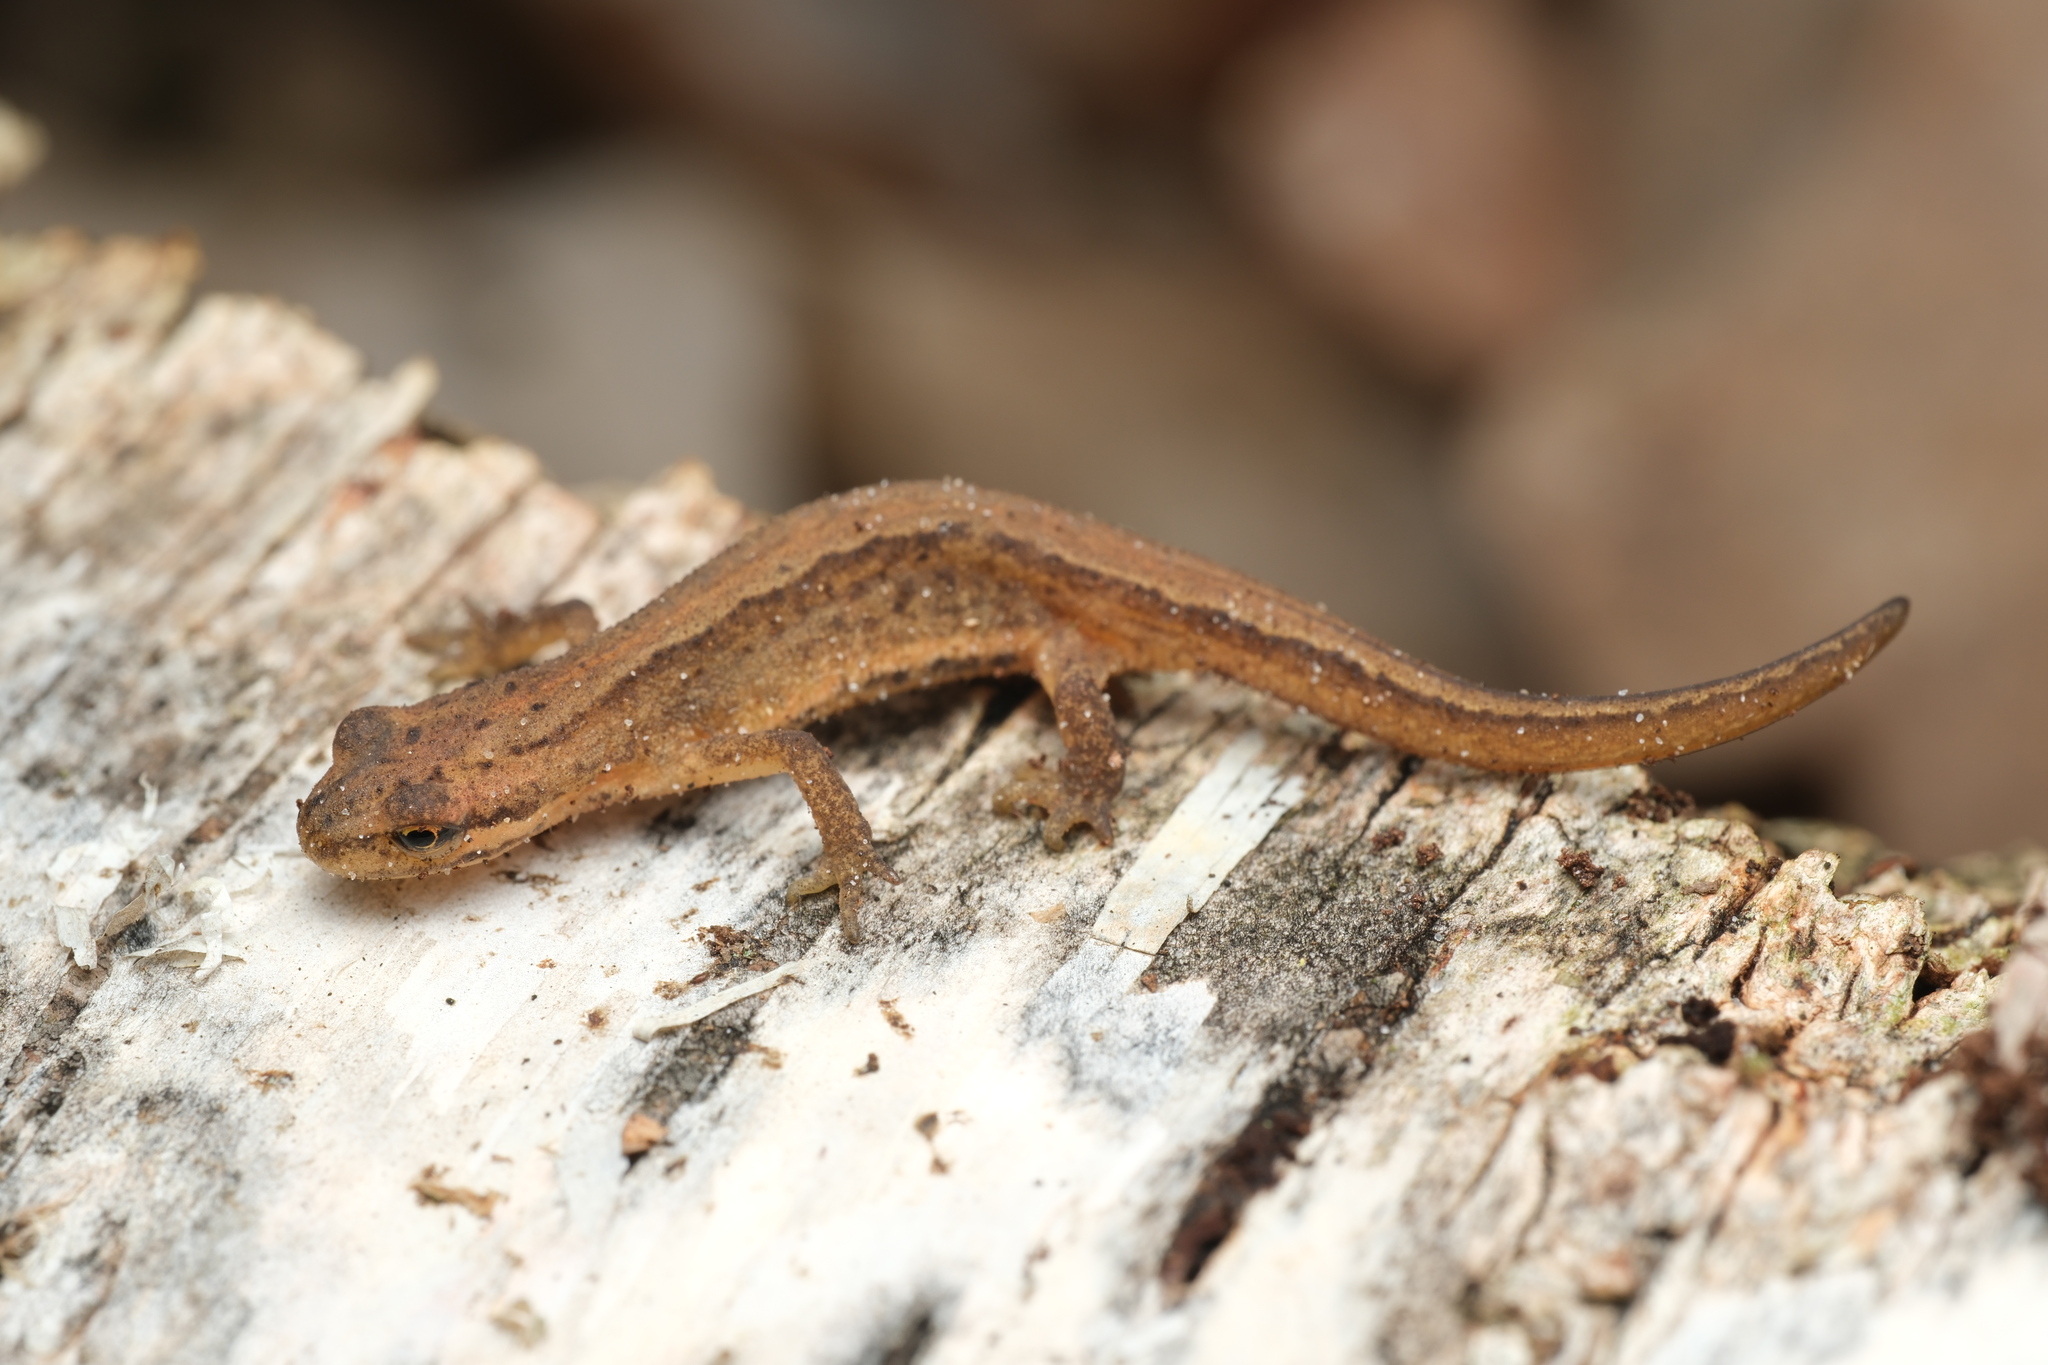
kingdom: Animalia
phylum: Chordata
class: Amphibia
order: Caudata
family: Salamandridae
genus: Lissotriton
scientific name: Lissotriton vulgaris
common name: Smooth newt
